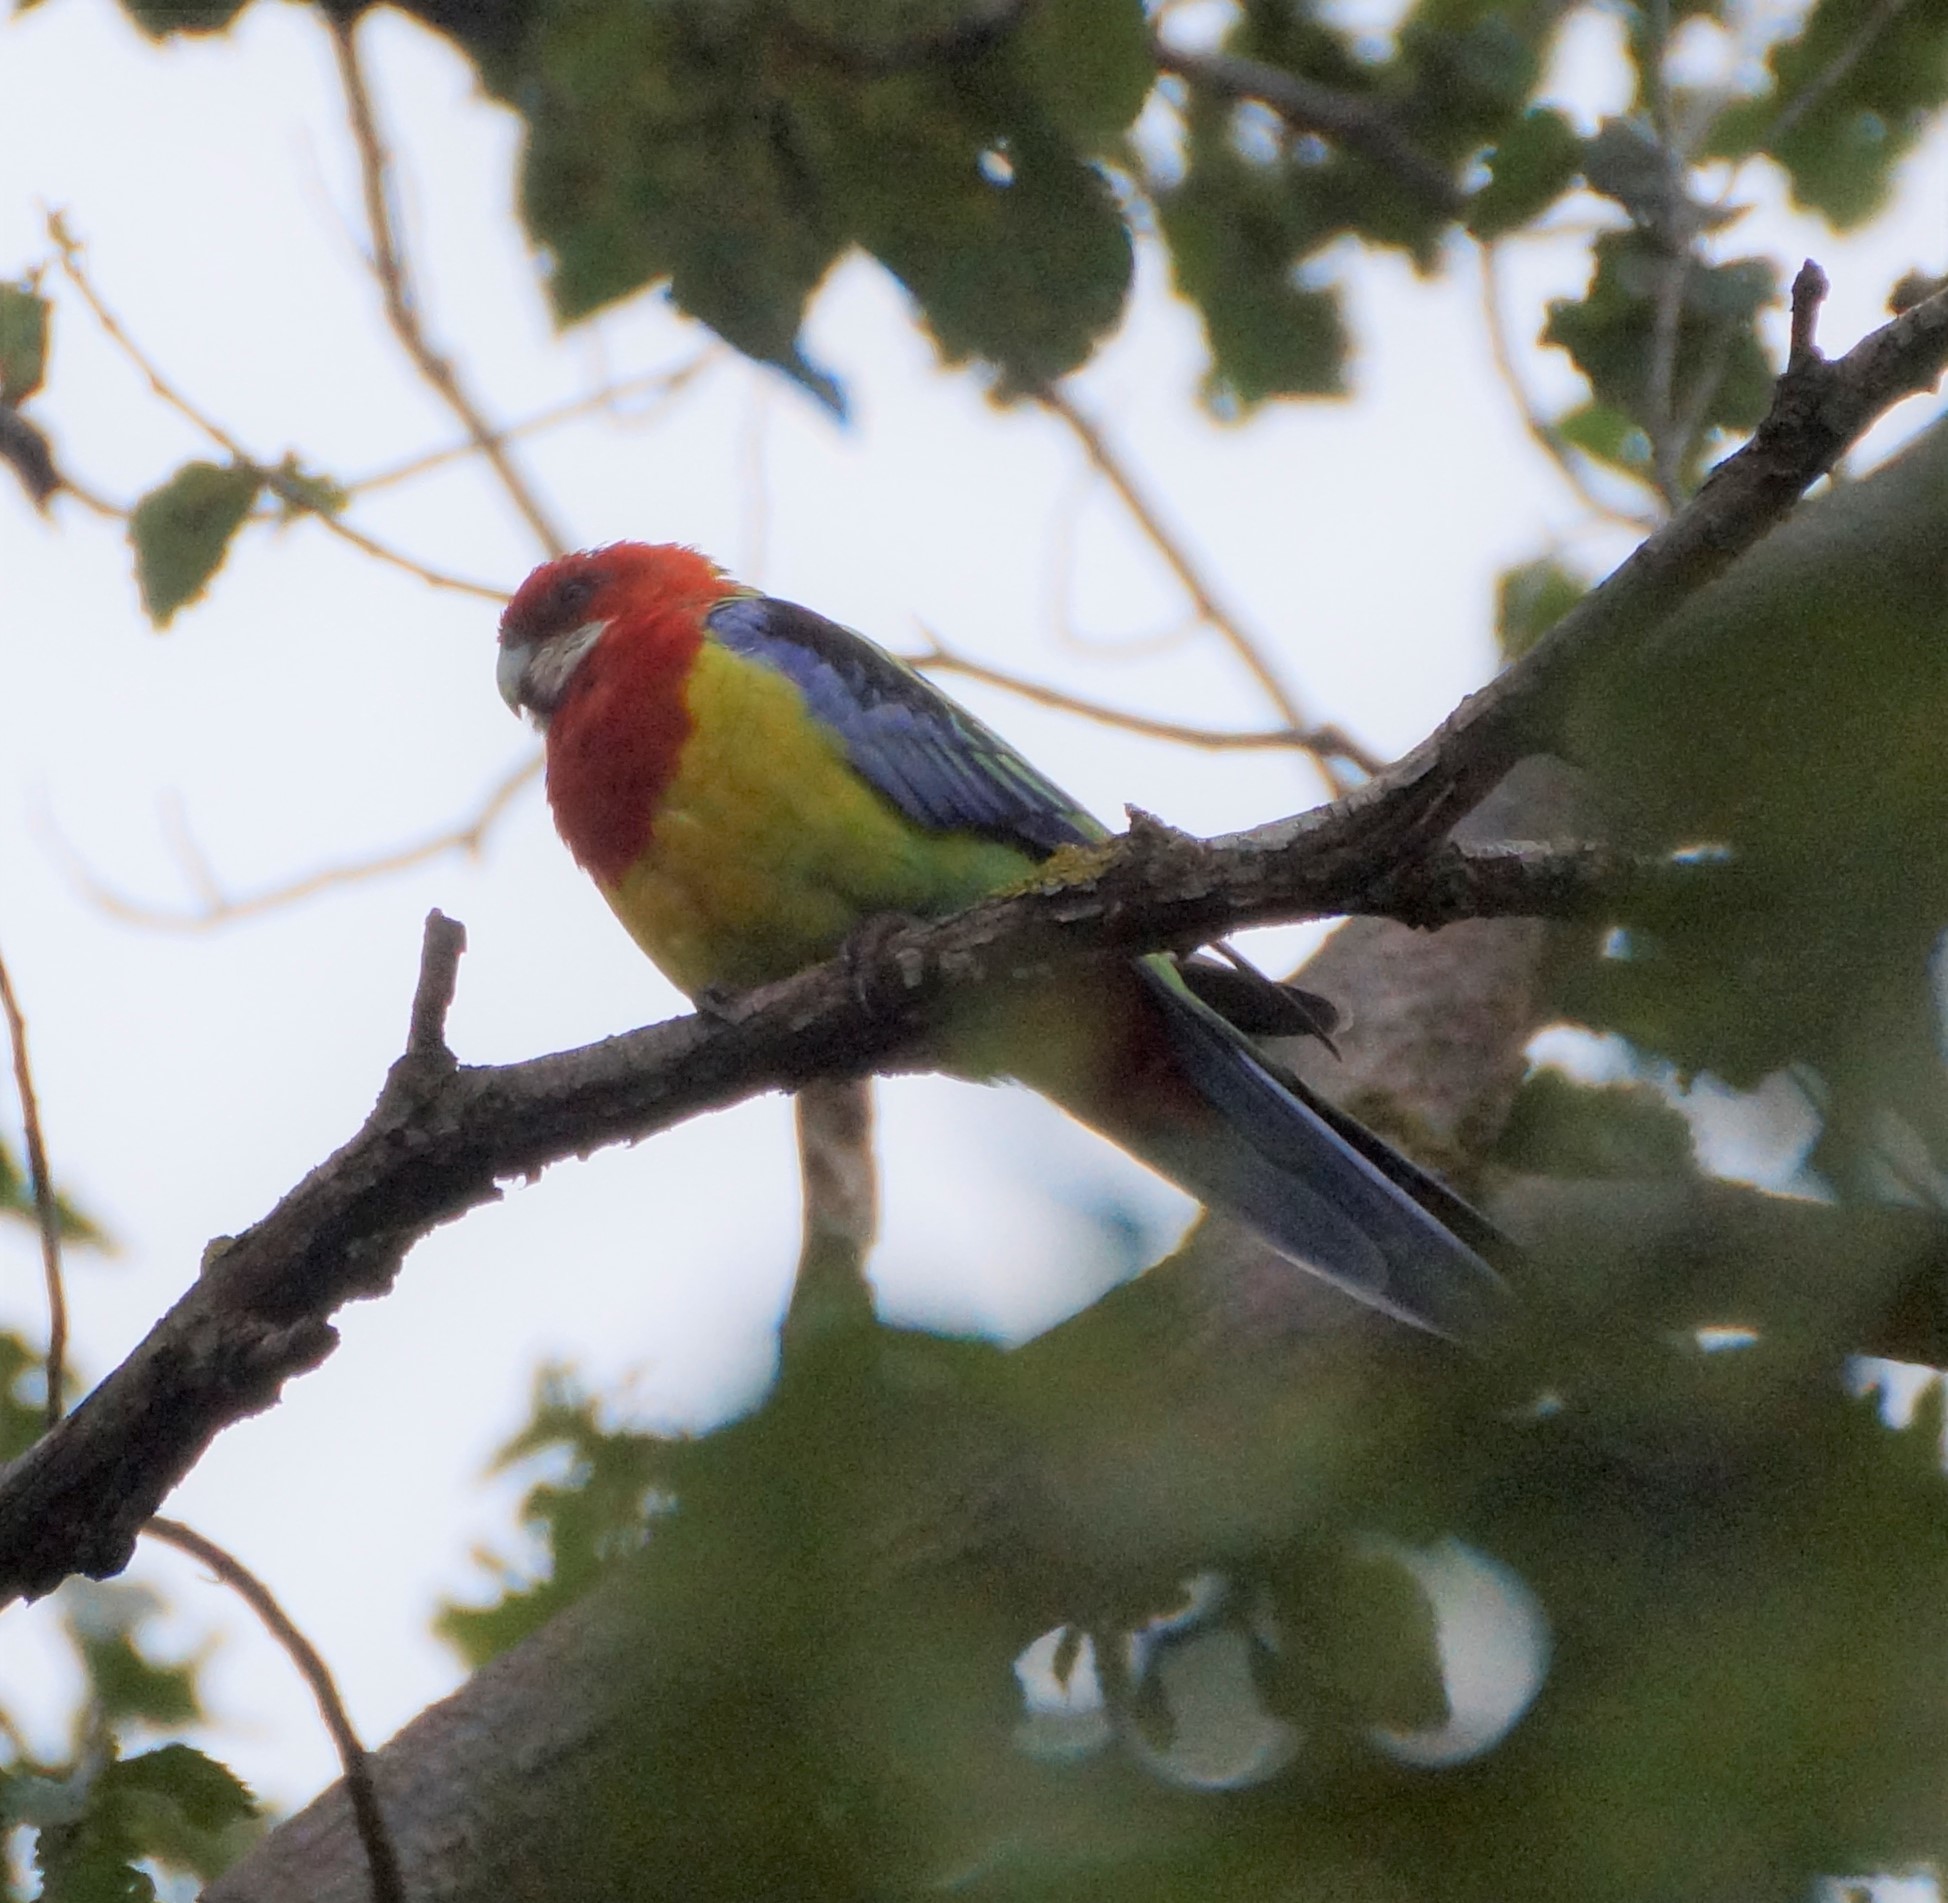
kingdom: Animalia
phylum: Chordata
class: Aves
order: Psittaciformes
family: Psittacidae
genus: Platycercus
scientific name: Platycercus eximius
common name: Eastern rosella
